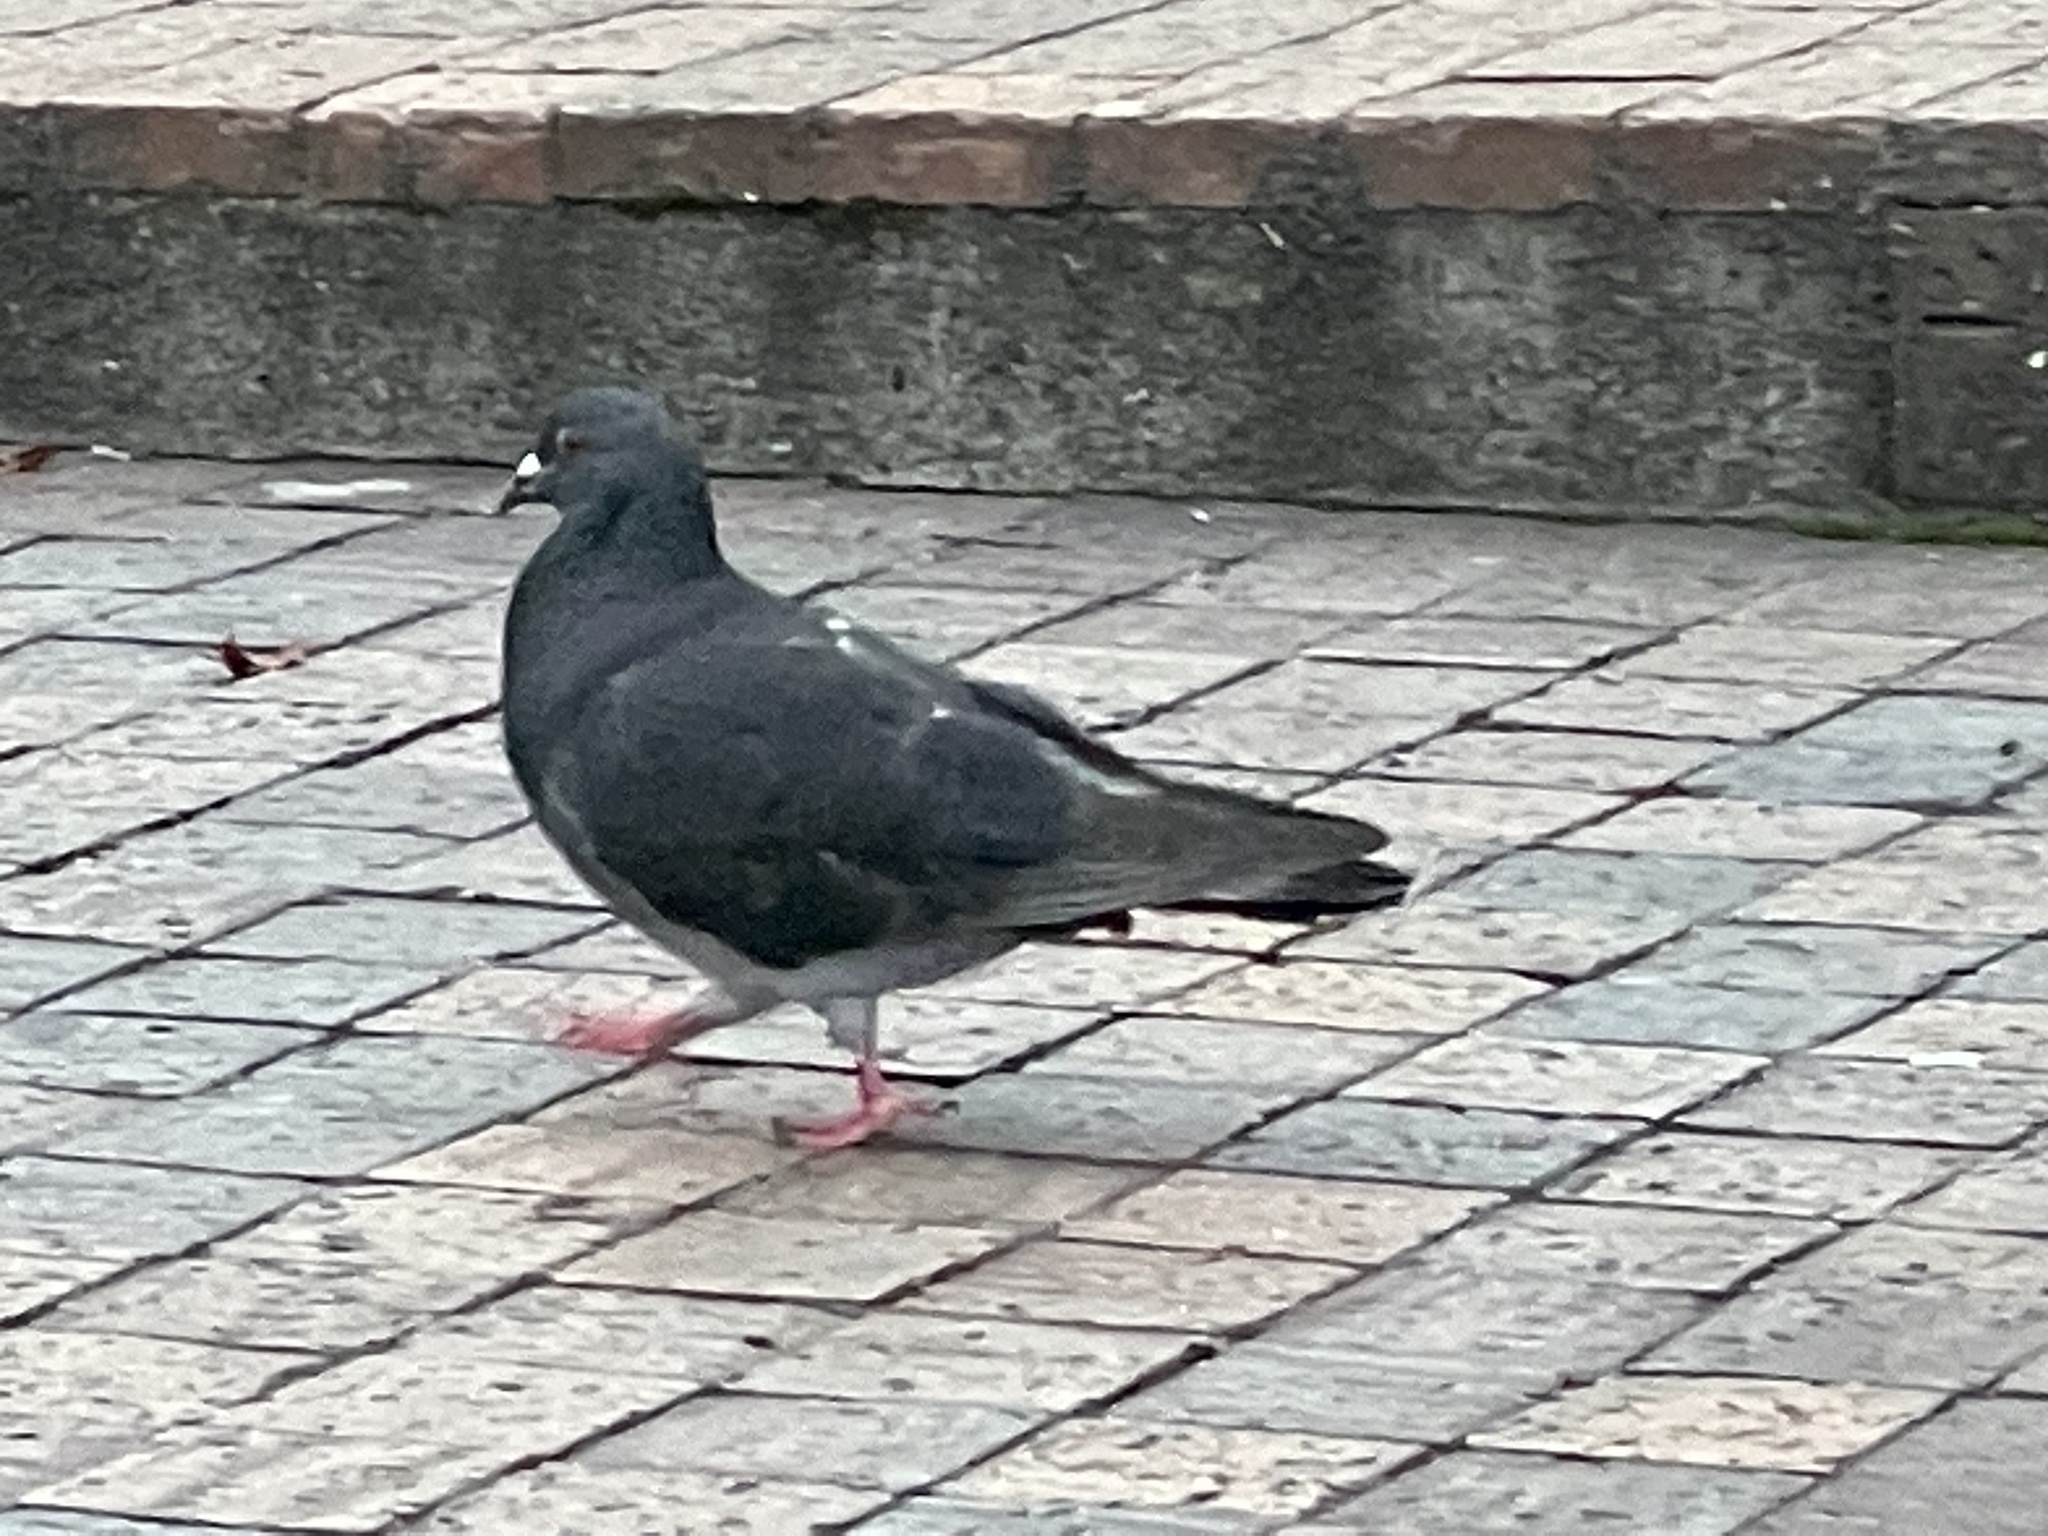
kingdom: Animalia
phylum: Chordata
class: Aves
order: Columbiformes
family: Columbidae
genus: Columba
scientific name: Columba livia
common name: Rock pigeon
